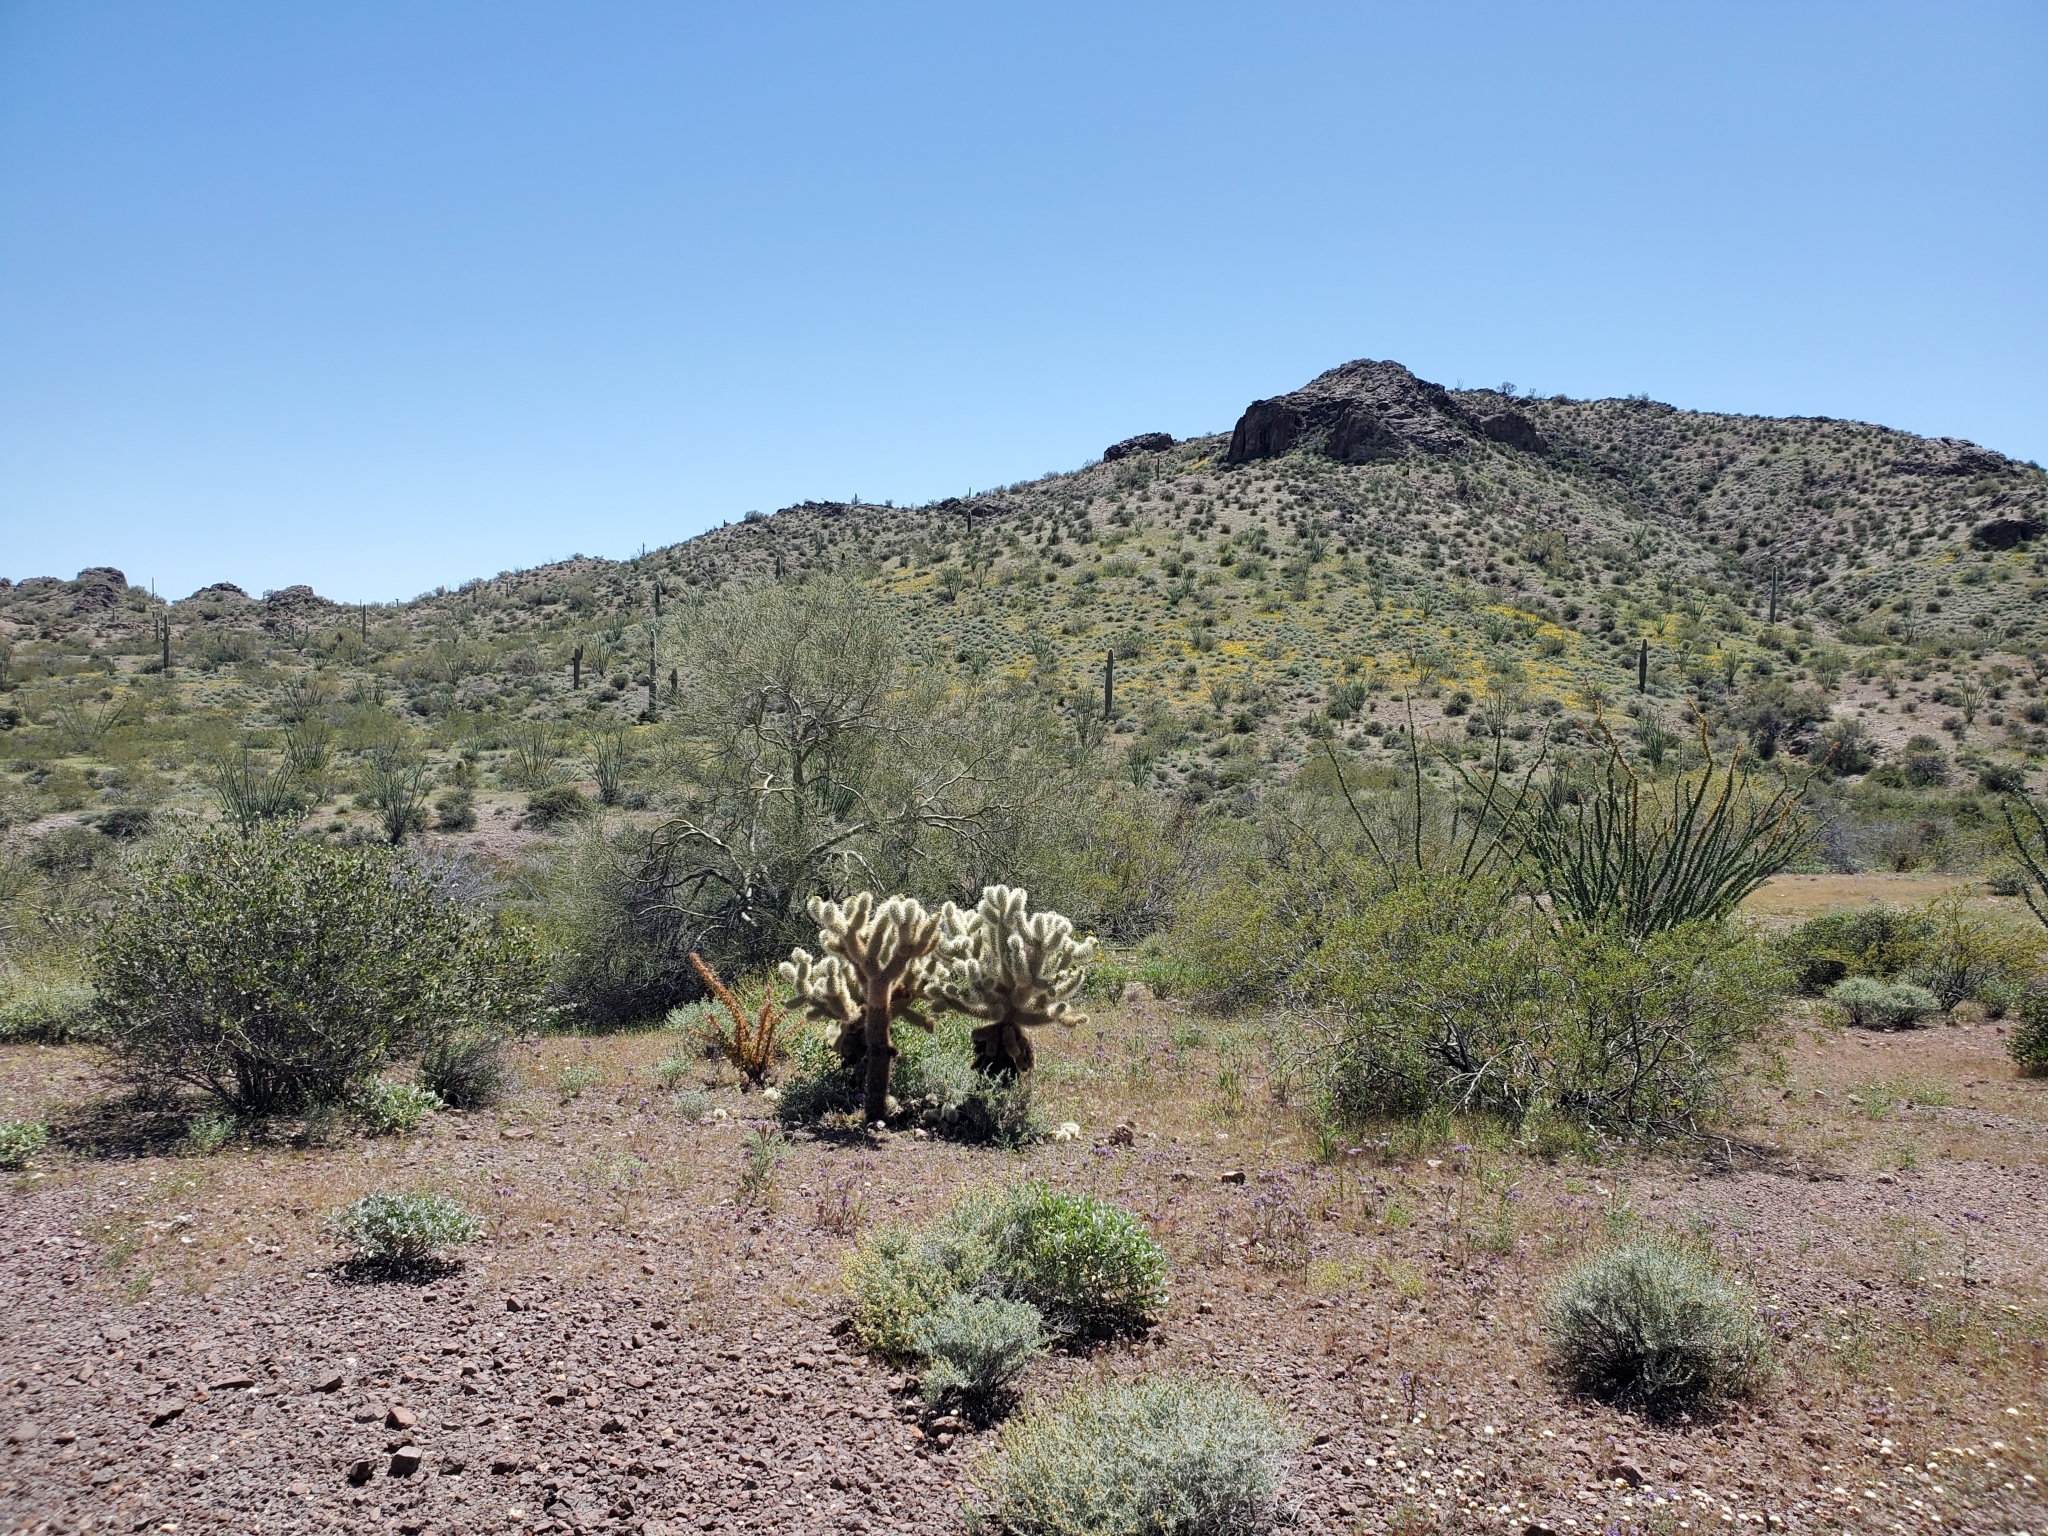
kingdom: Plantae
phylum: Tracheophyta
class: Magnoliopsida
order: Caryophyllales
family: Cactaceae
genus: Cylindropuntia
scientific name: Cylindropuntia fosbergii
